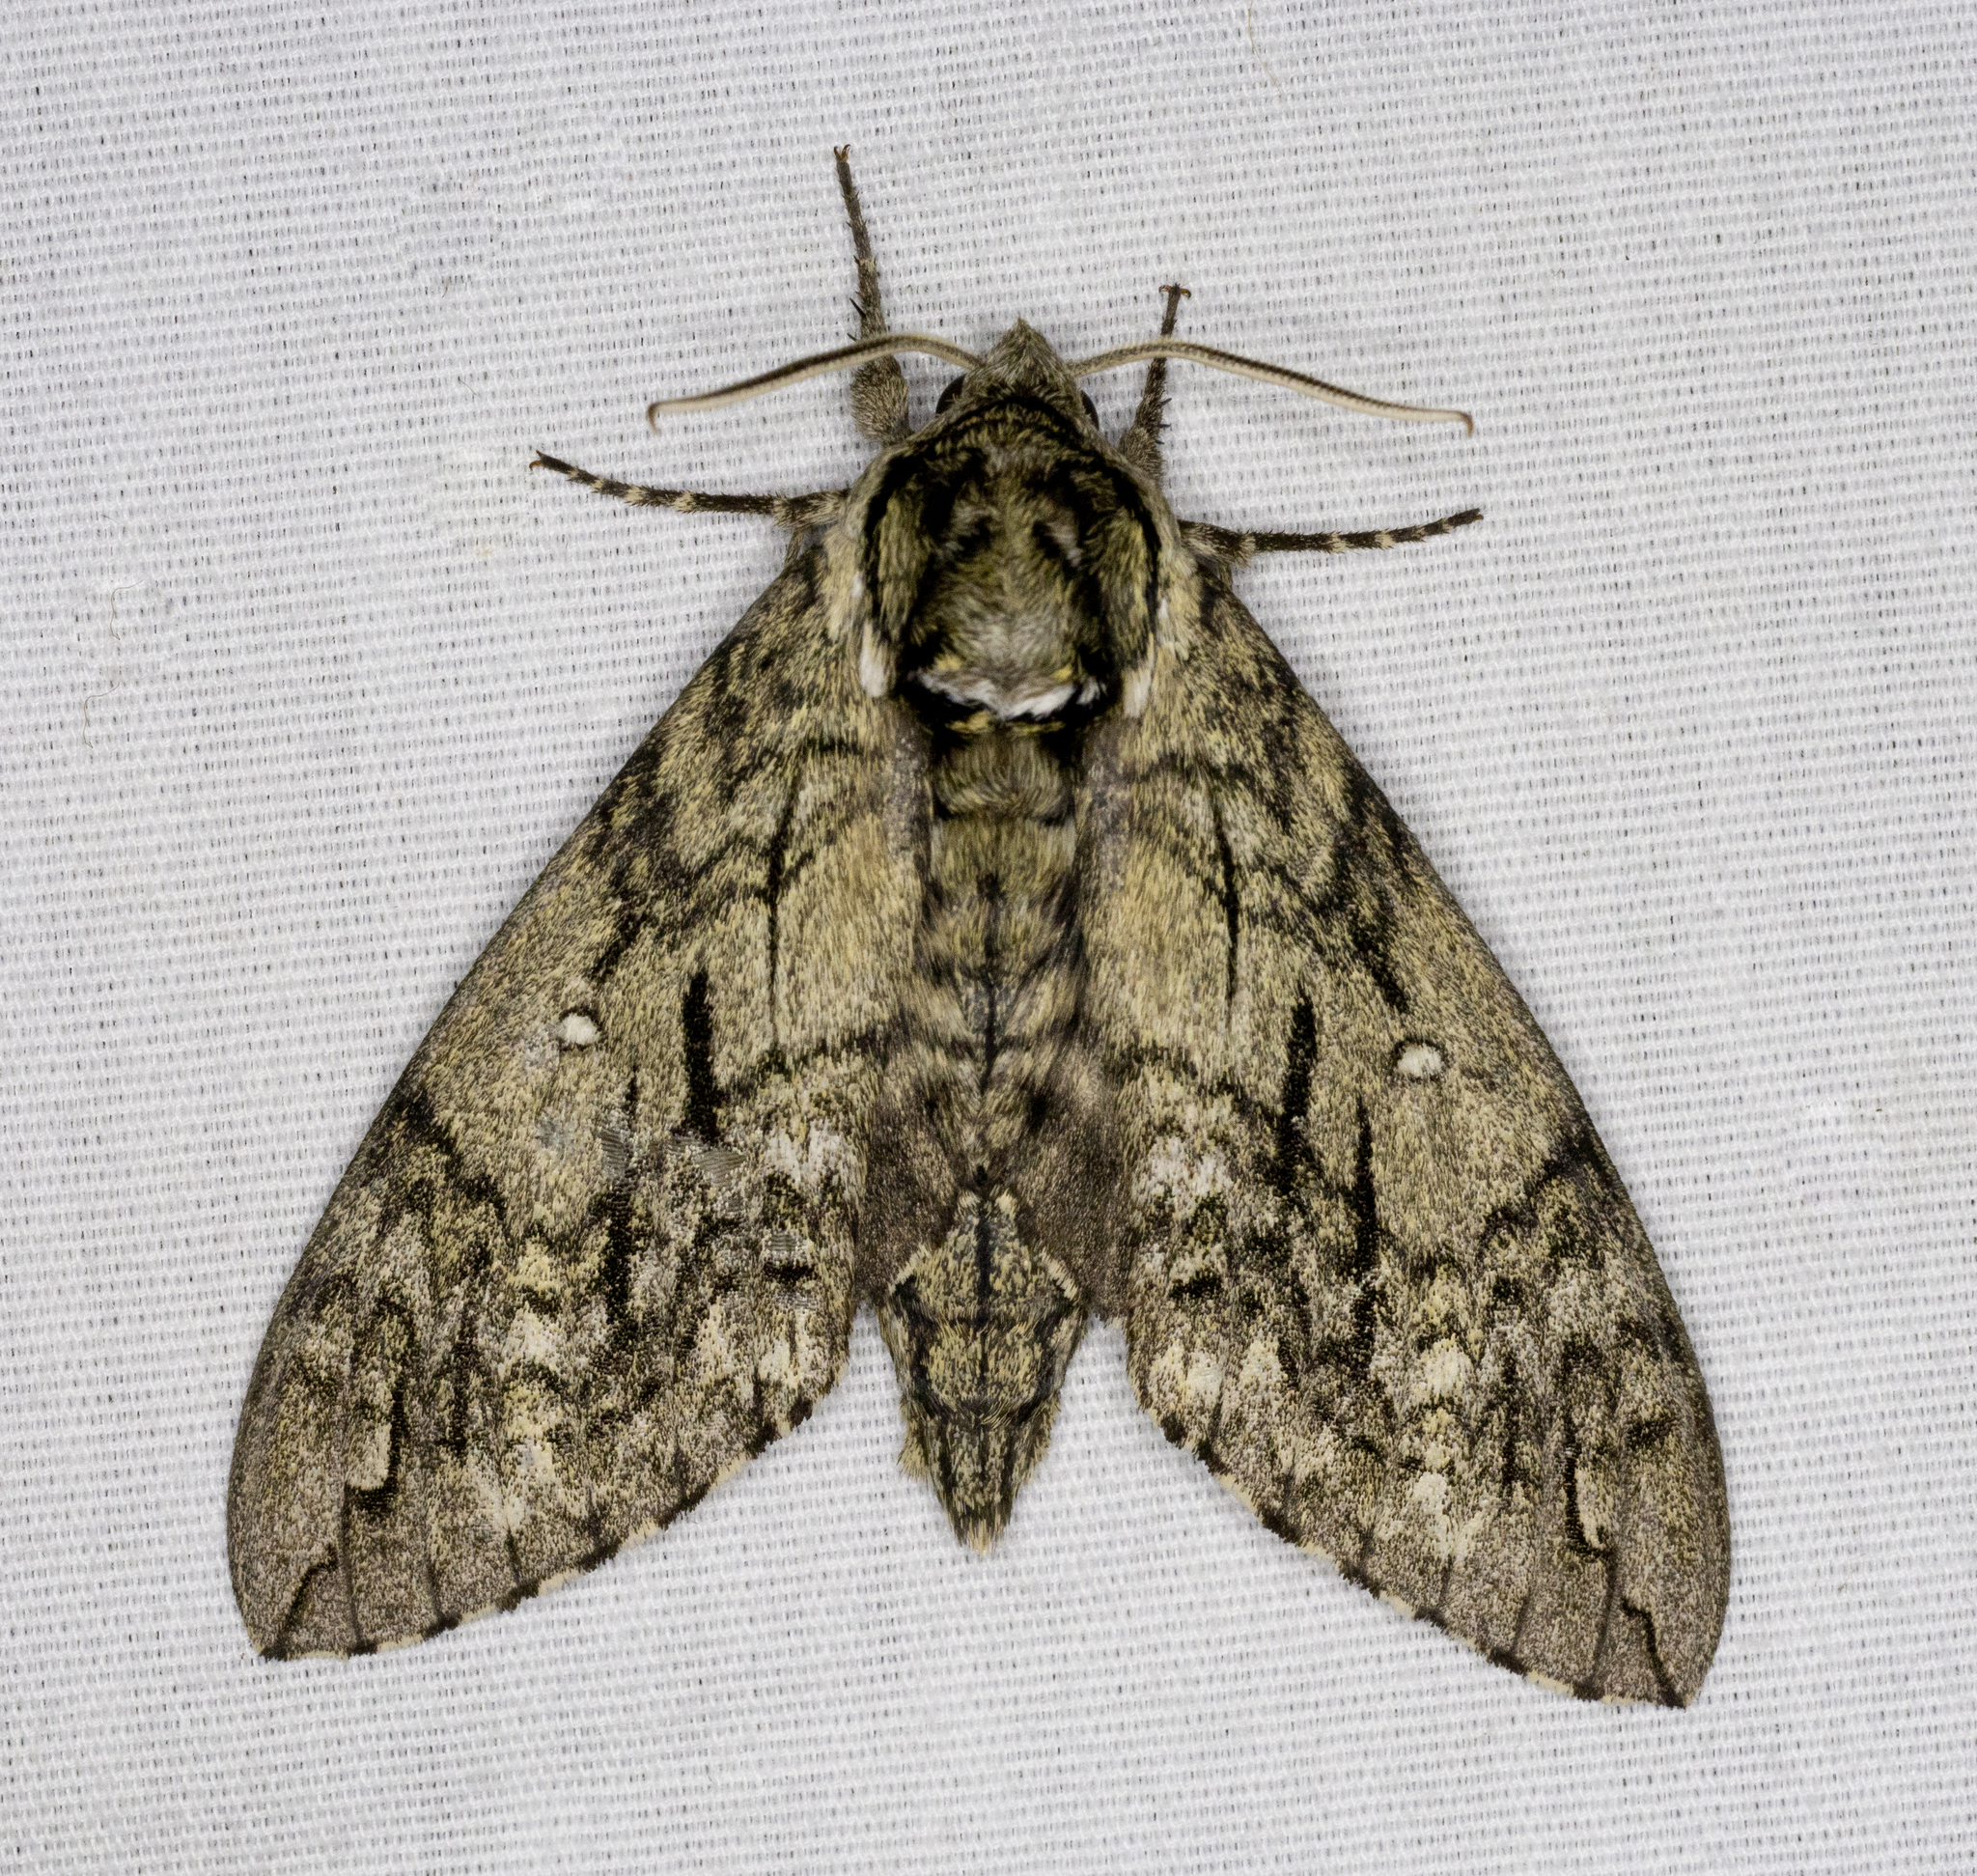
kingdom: Animalia
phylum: Arthropoda
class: Insecta
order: Lepidoptera
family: Sphingidae
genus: Ceratomia
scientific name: Ceratomia undulosa
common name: Waved sphinx
